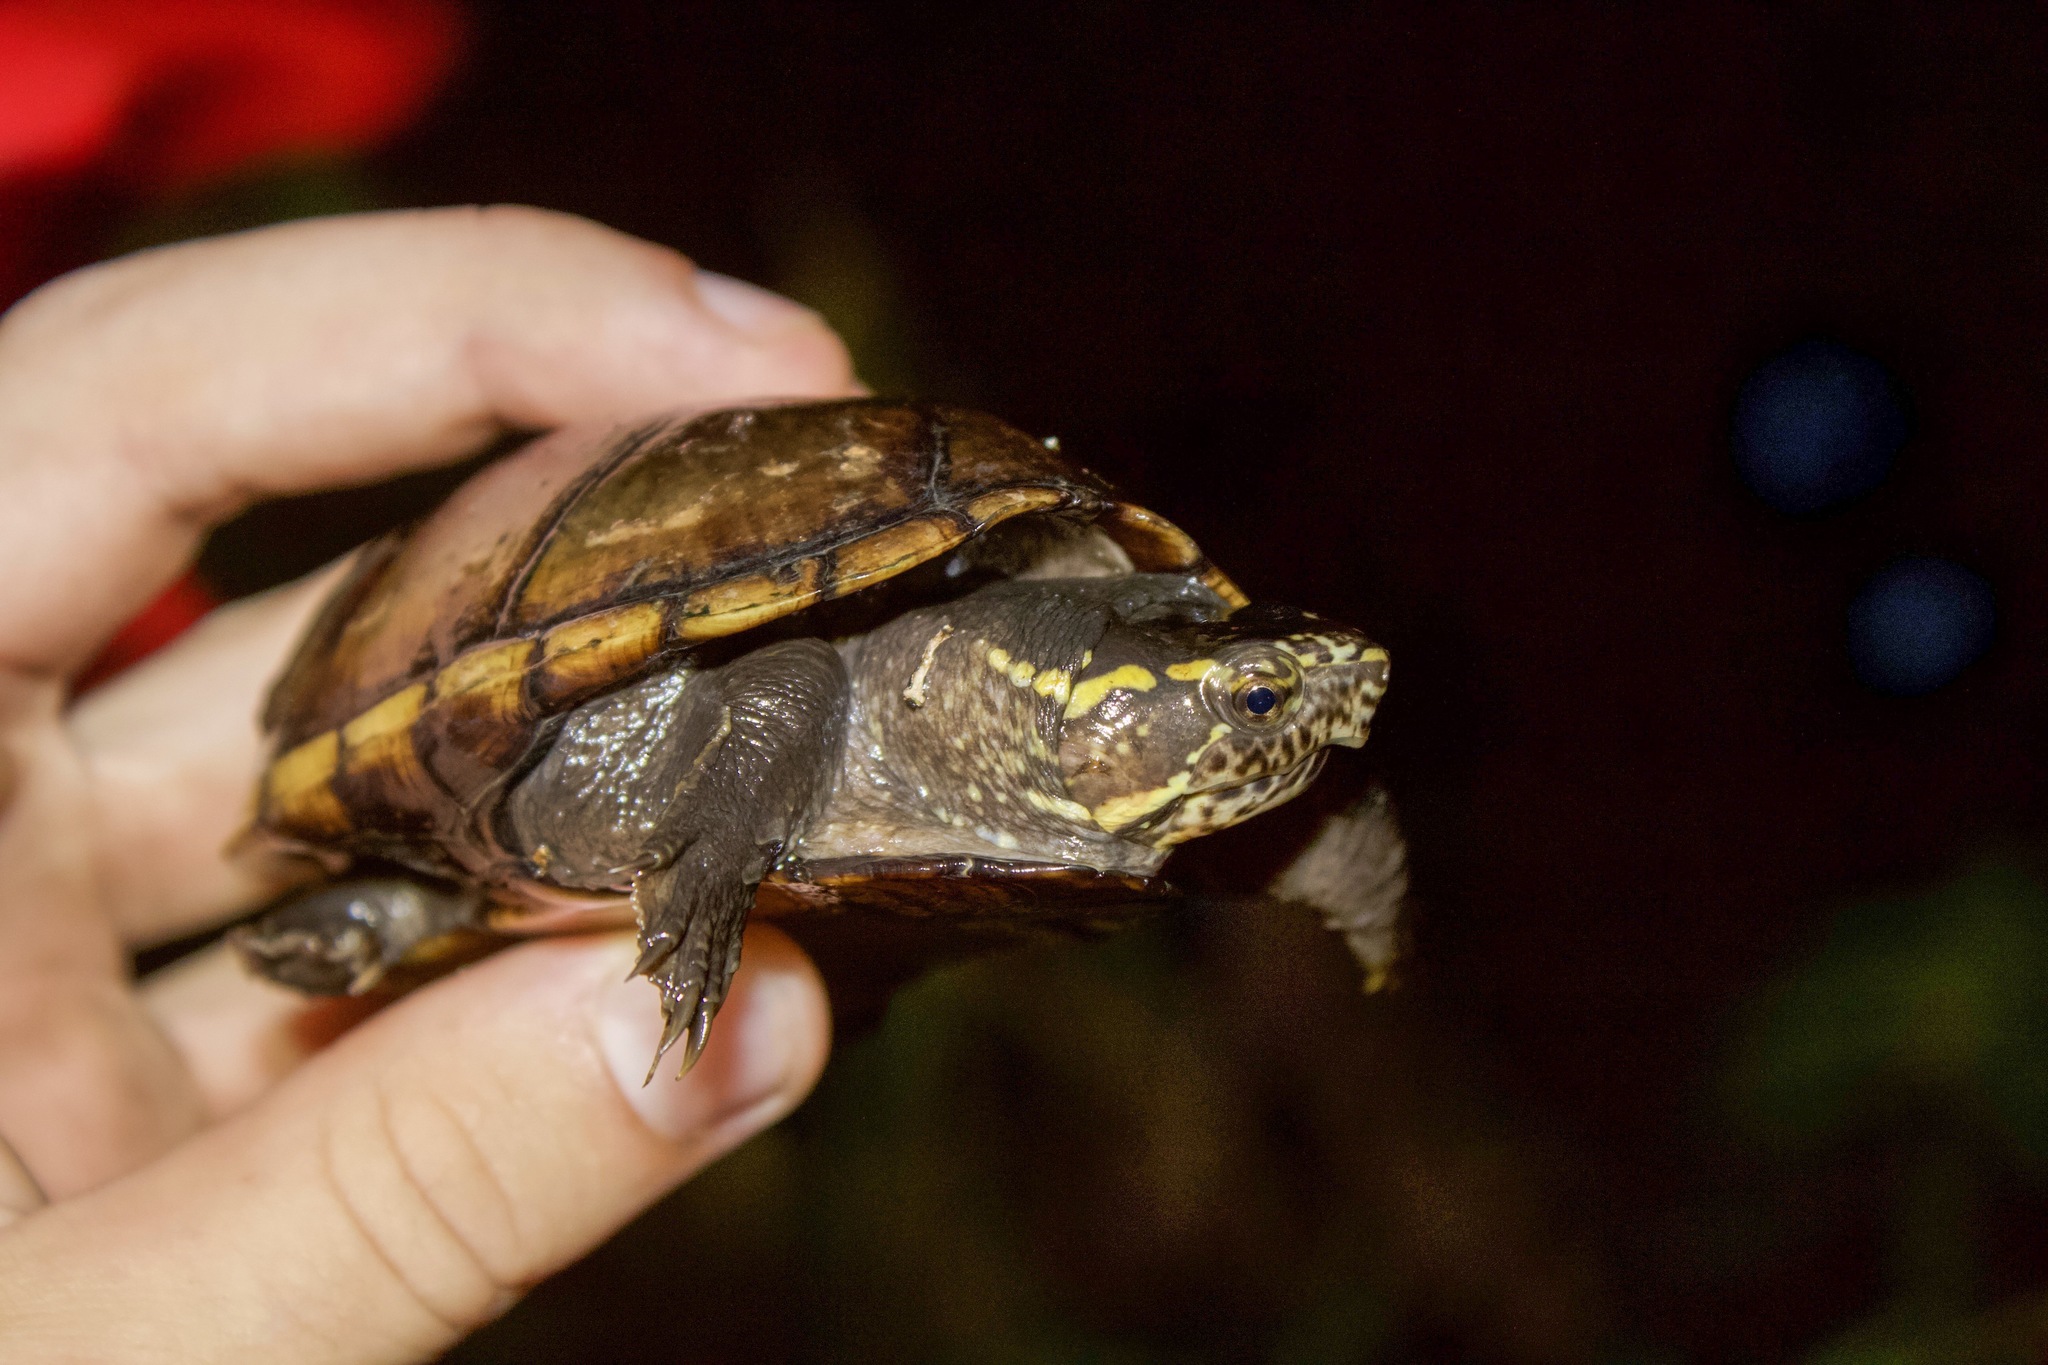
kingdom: Animalia
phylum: Chordata
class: Testudines
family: Kinosternidae
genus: Kinosternon
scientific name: Kinosternon subrubrum
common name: Eastern mud turtle
